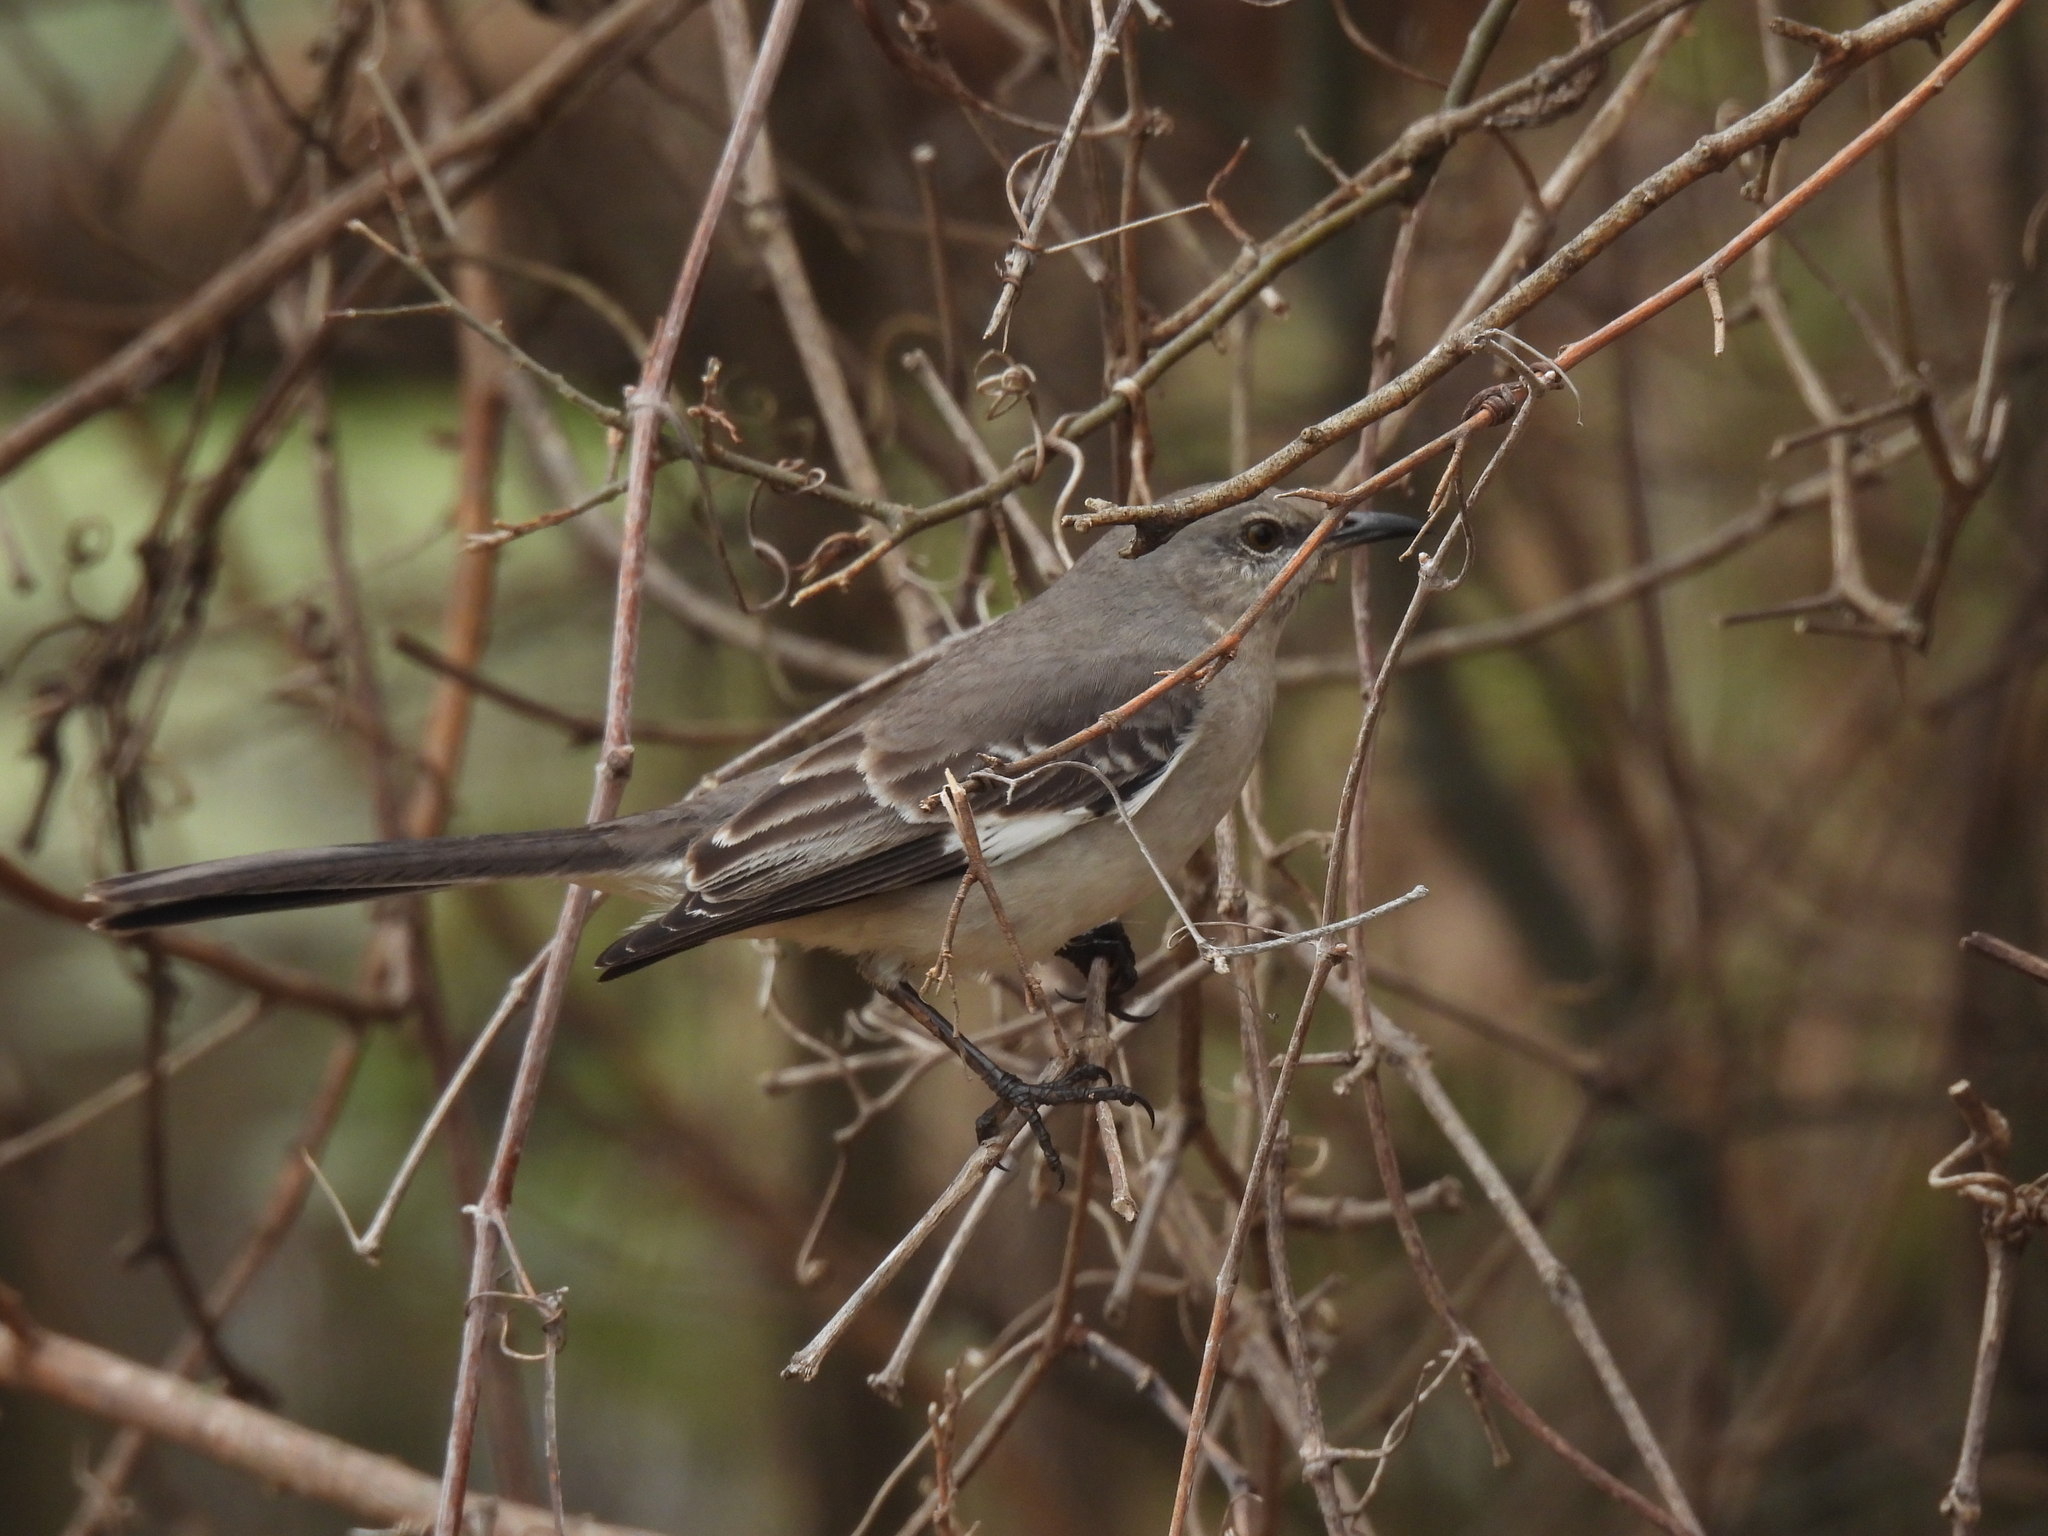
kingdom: Animalia
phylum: Chordata
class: Aves
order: Passeriformes
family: Mimidae
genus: Mimus
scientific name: Mimus polyglottos
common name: Northern mockingbird
